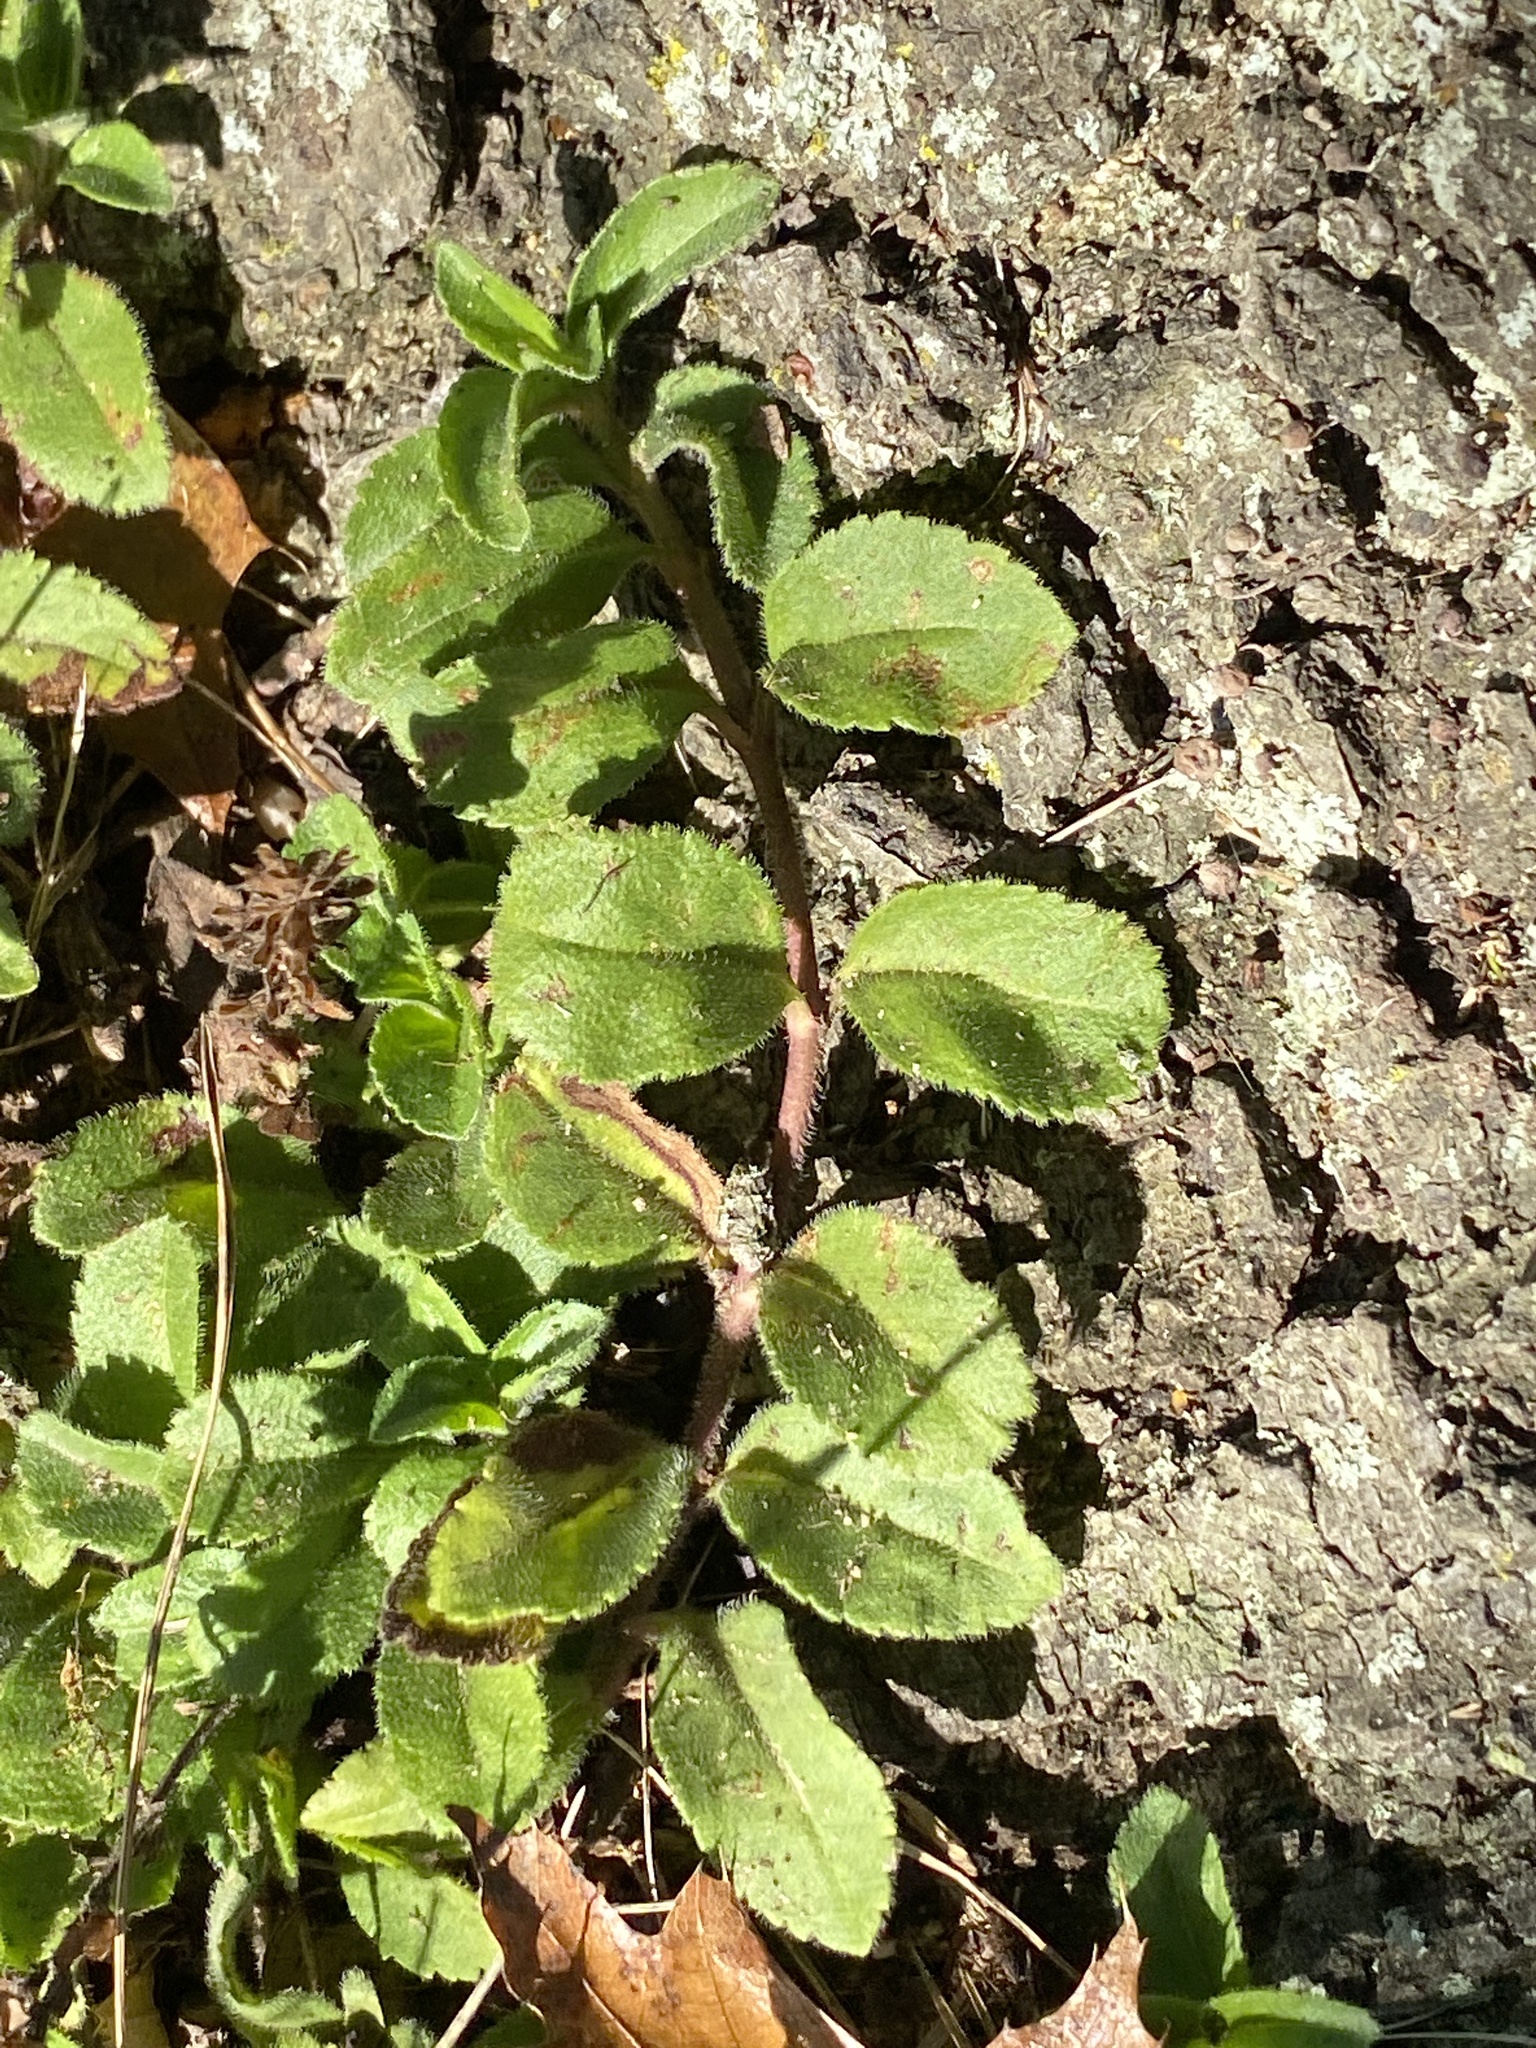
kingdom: Plantae
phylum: Tracheophyta
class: Magnoliopsida
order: Lamiales
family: Plantaginaceae
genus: Veronica
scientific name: Veronica officinalis
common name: Common speedwell
